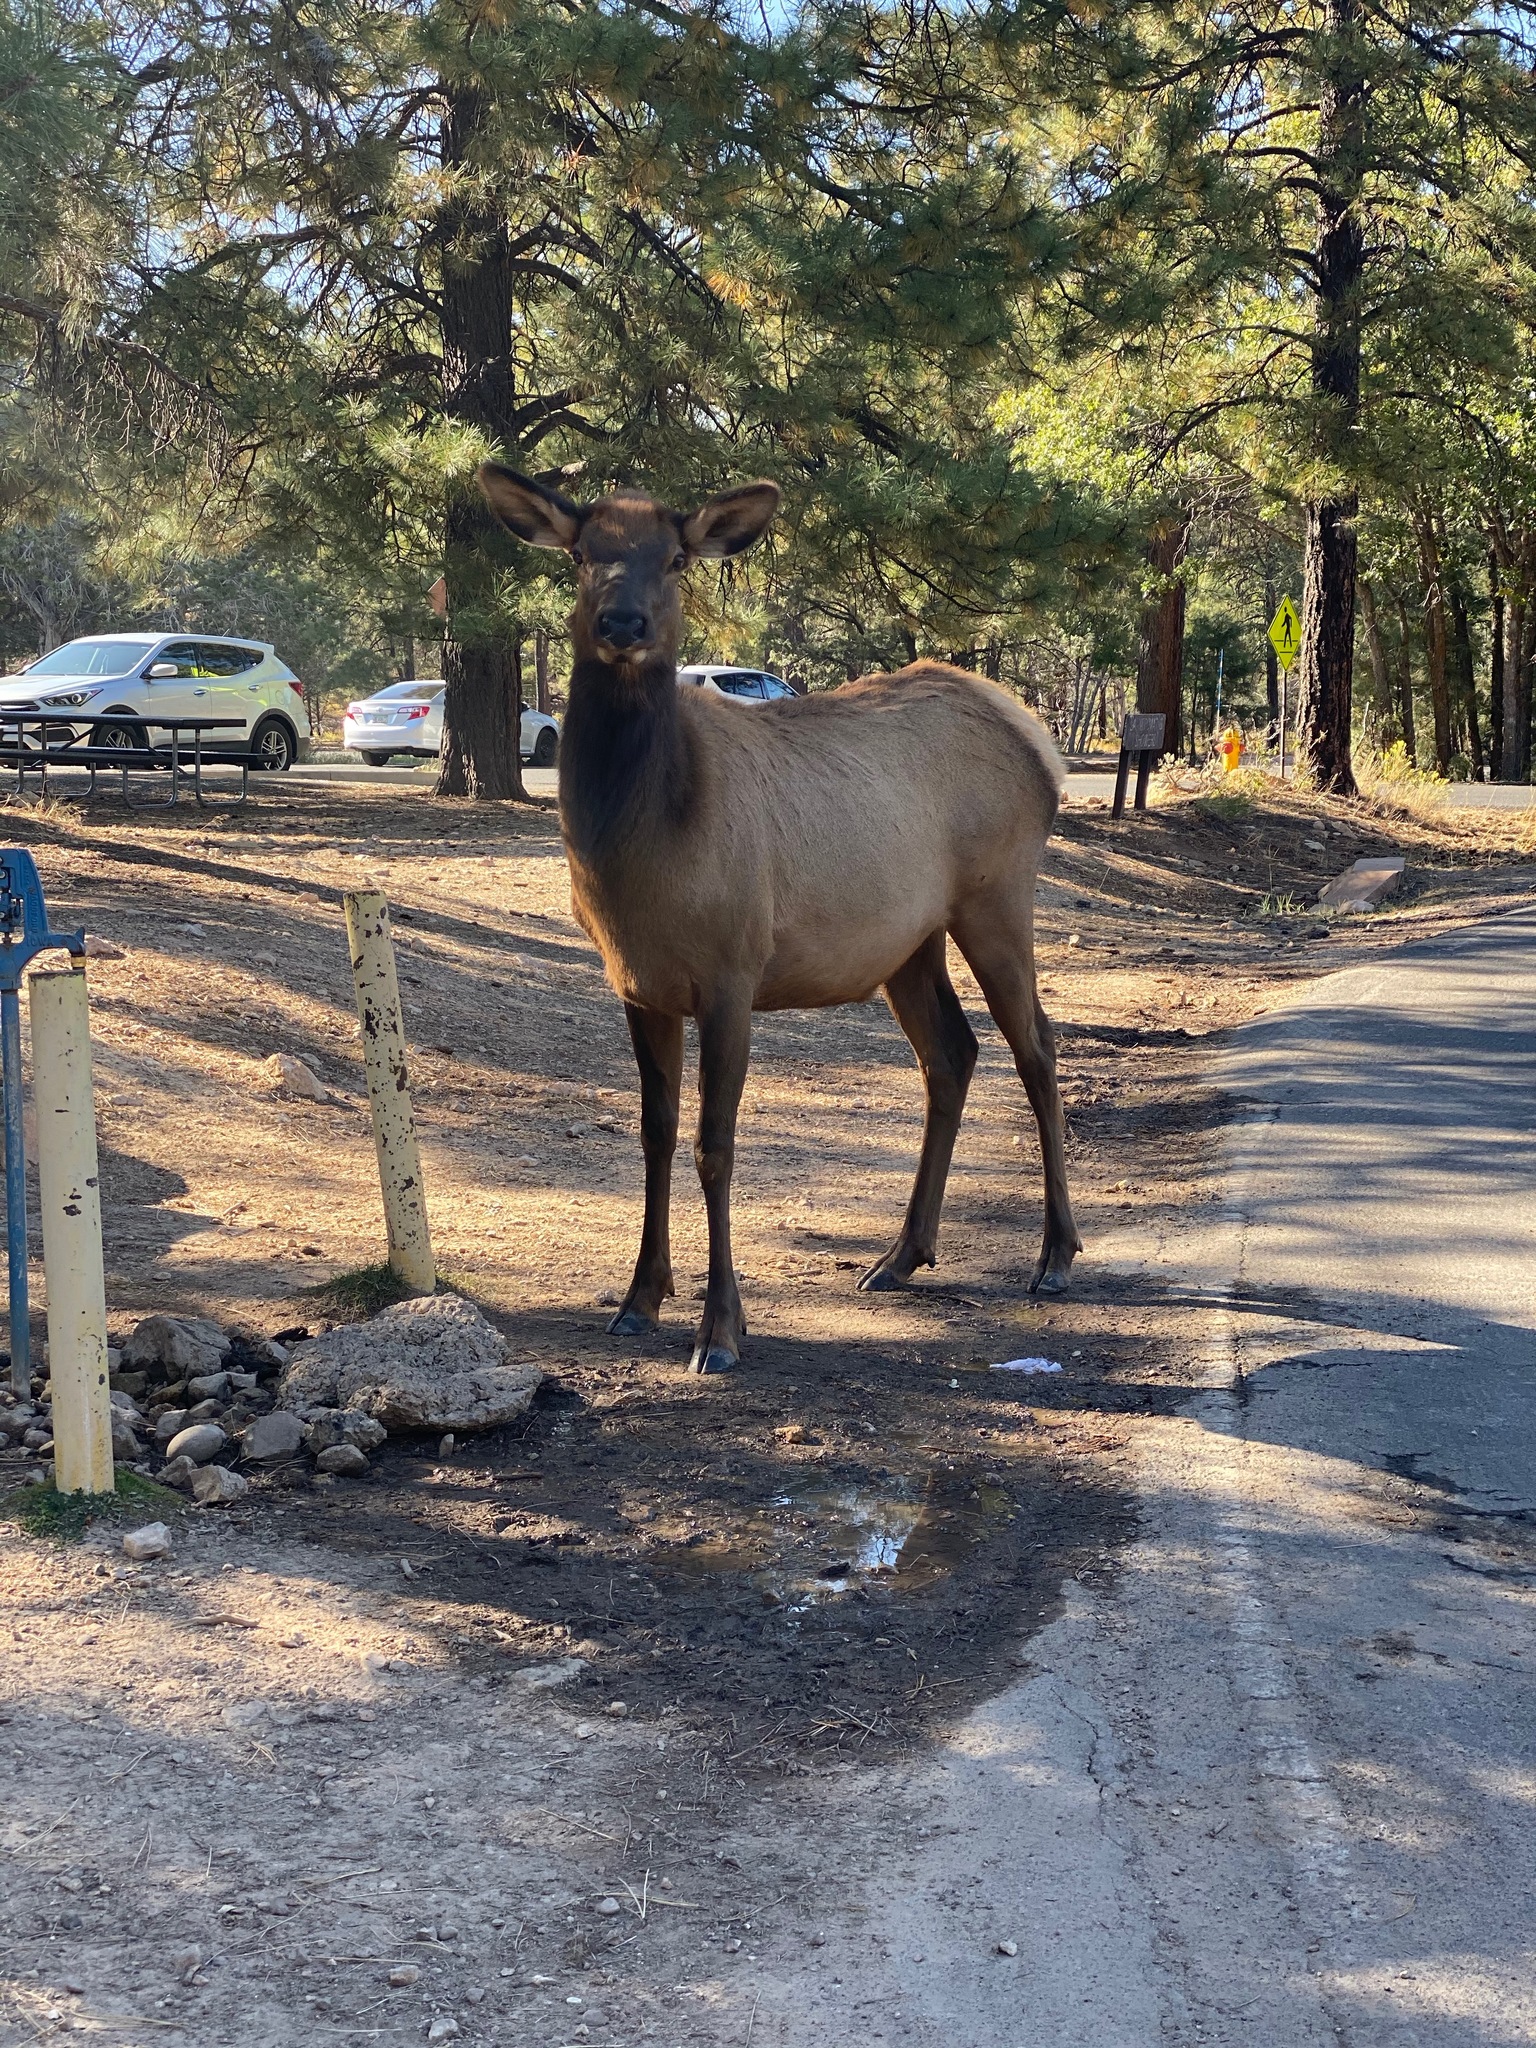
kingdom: Animalia
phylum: Chordata
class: Mammalia
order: Artiodactyla
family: Cervidae
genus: Cervus
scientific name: Cervus elaphus
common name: Red deer
